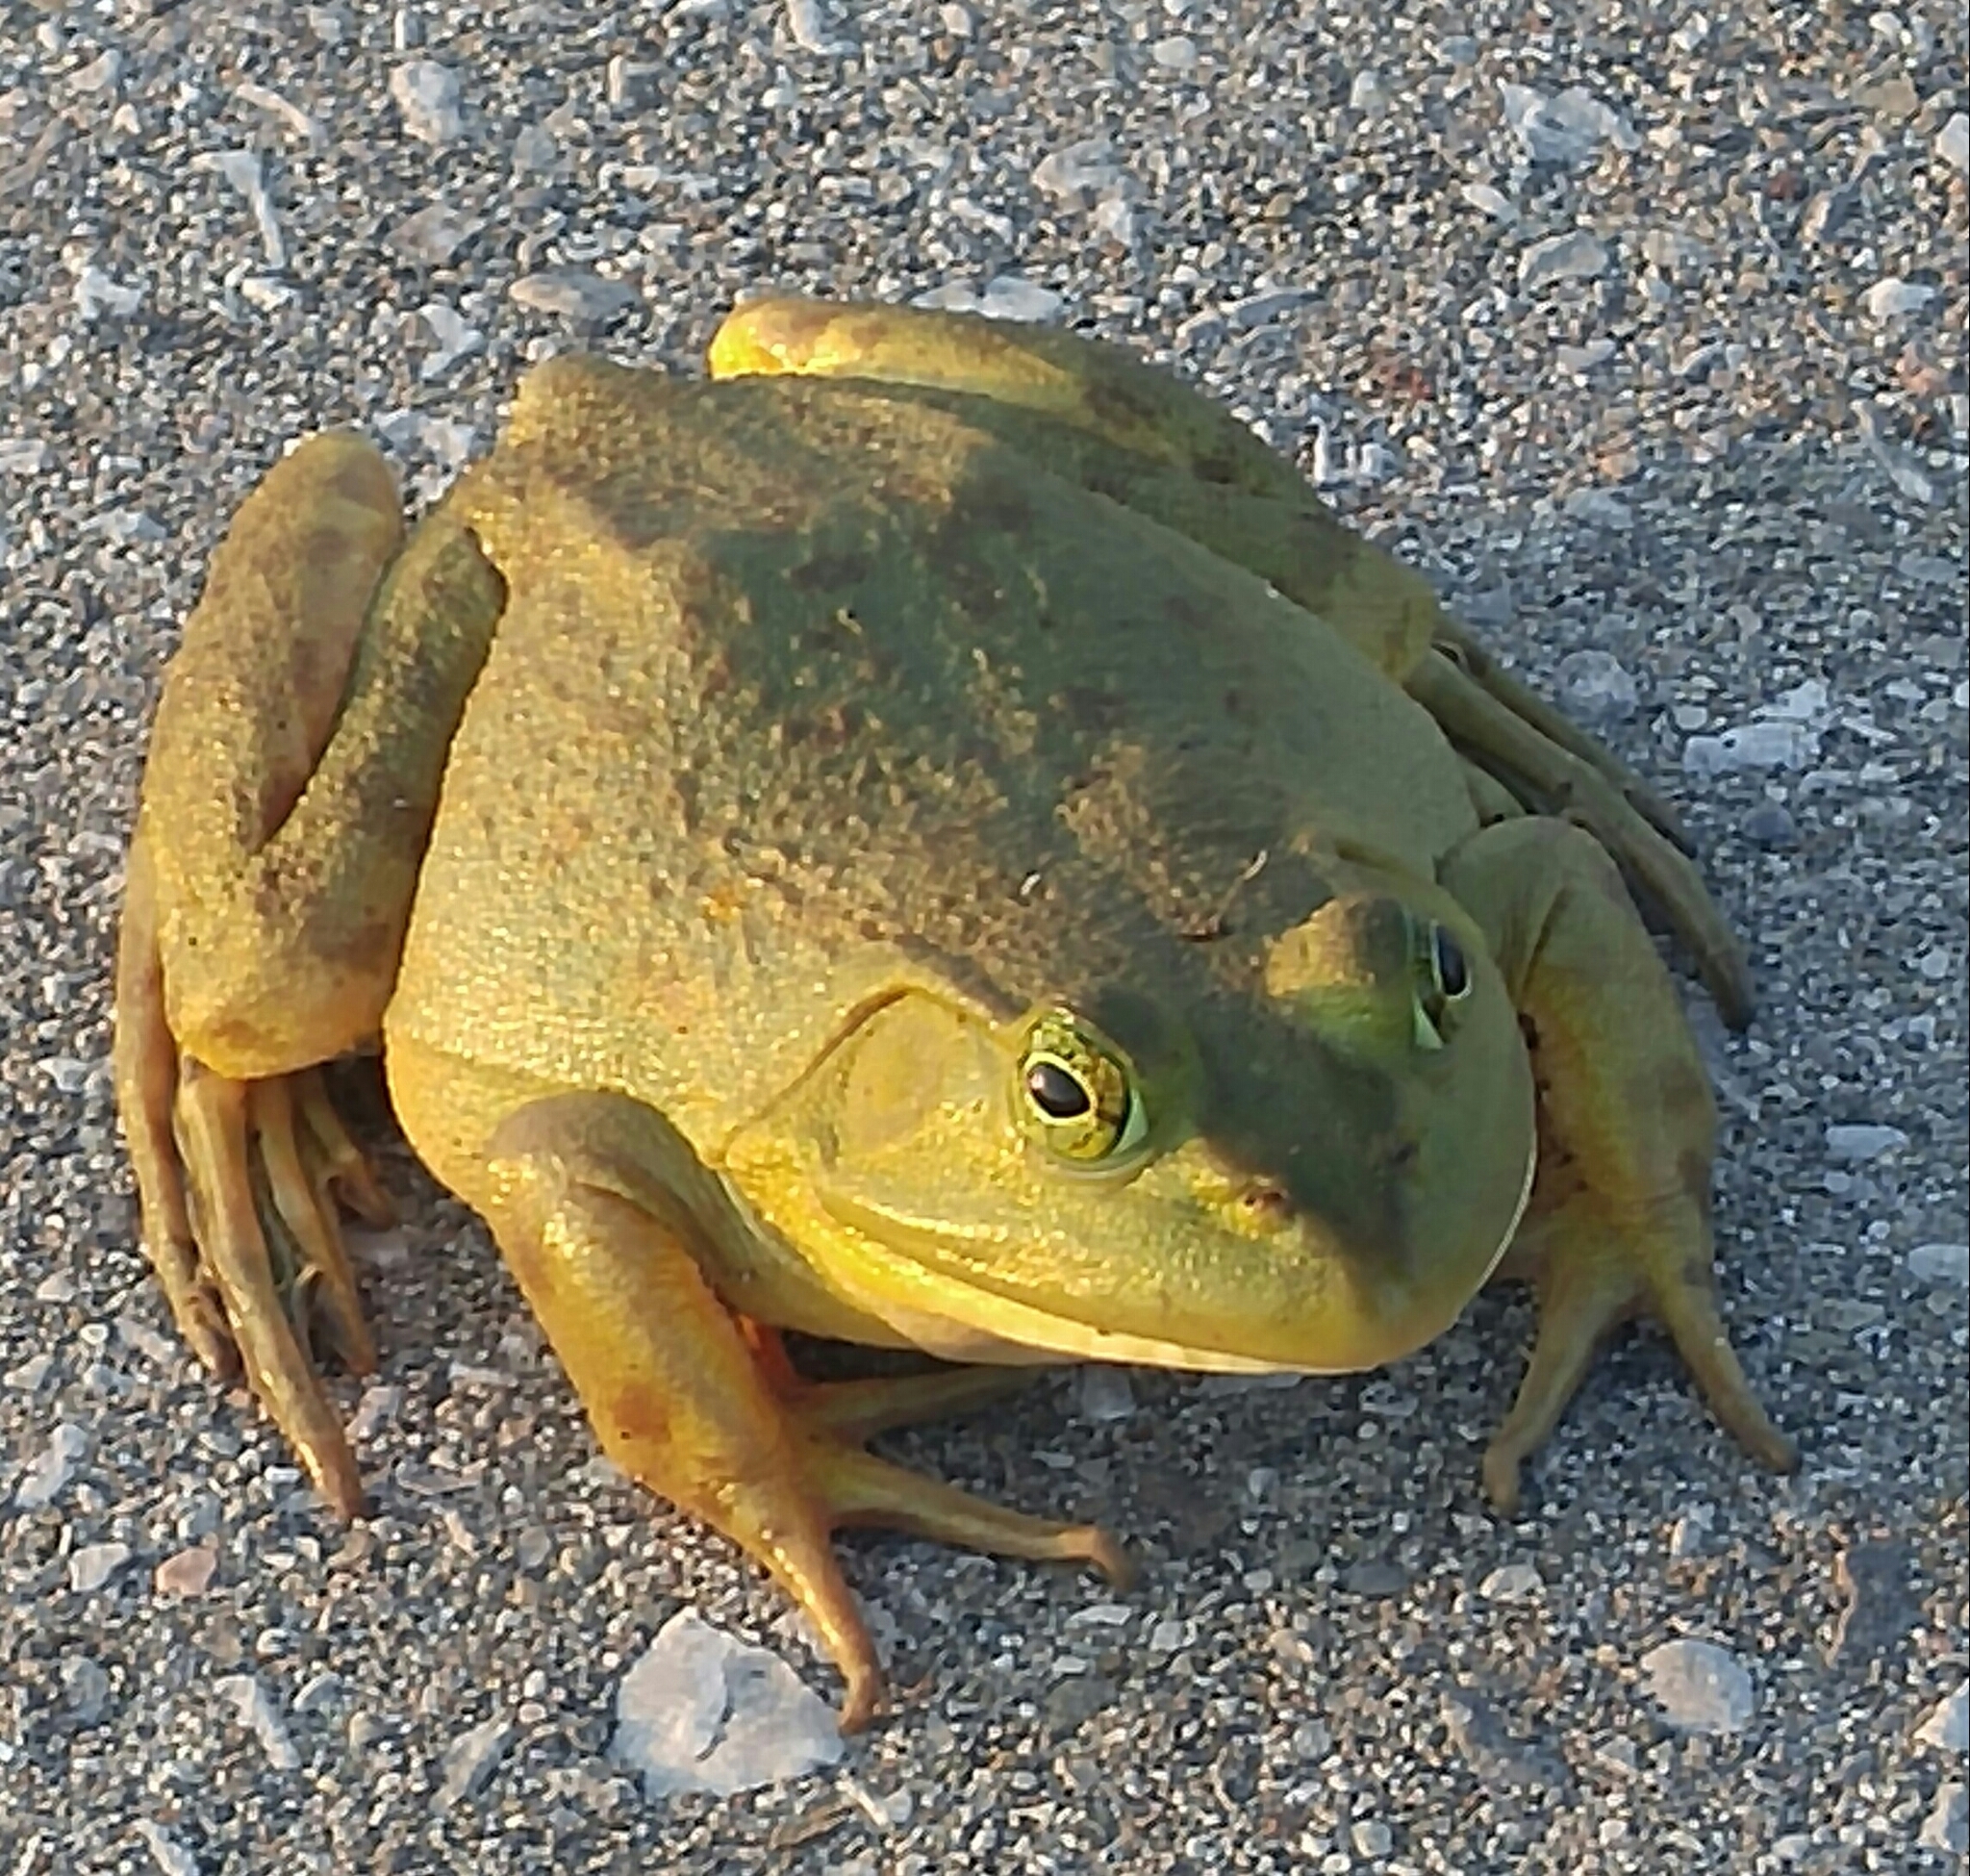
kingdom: Animalia
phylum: Chordata
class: Amphibia
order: Anura
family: Ranidae
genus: Lithobates
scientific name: Lithobates catesbeianus
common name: American bullfrog
